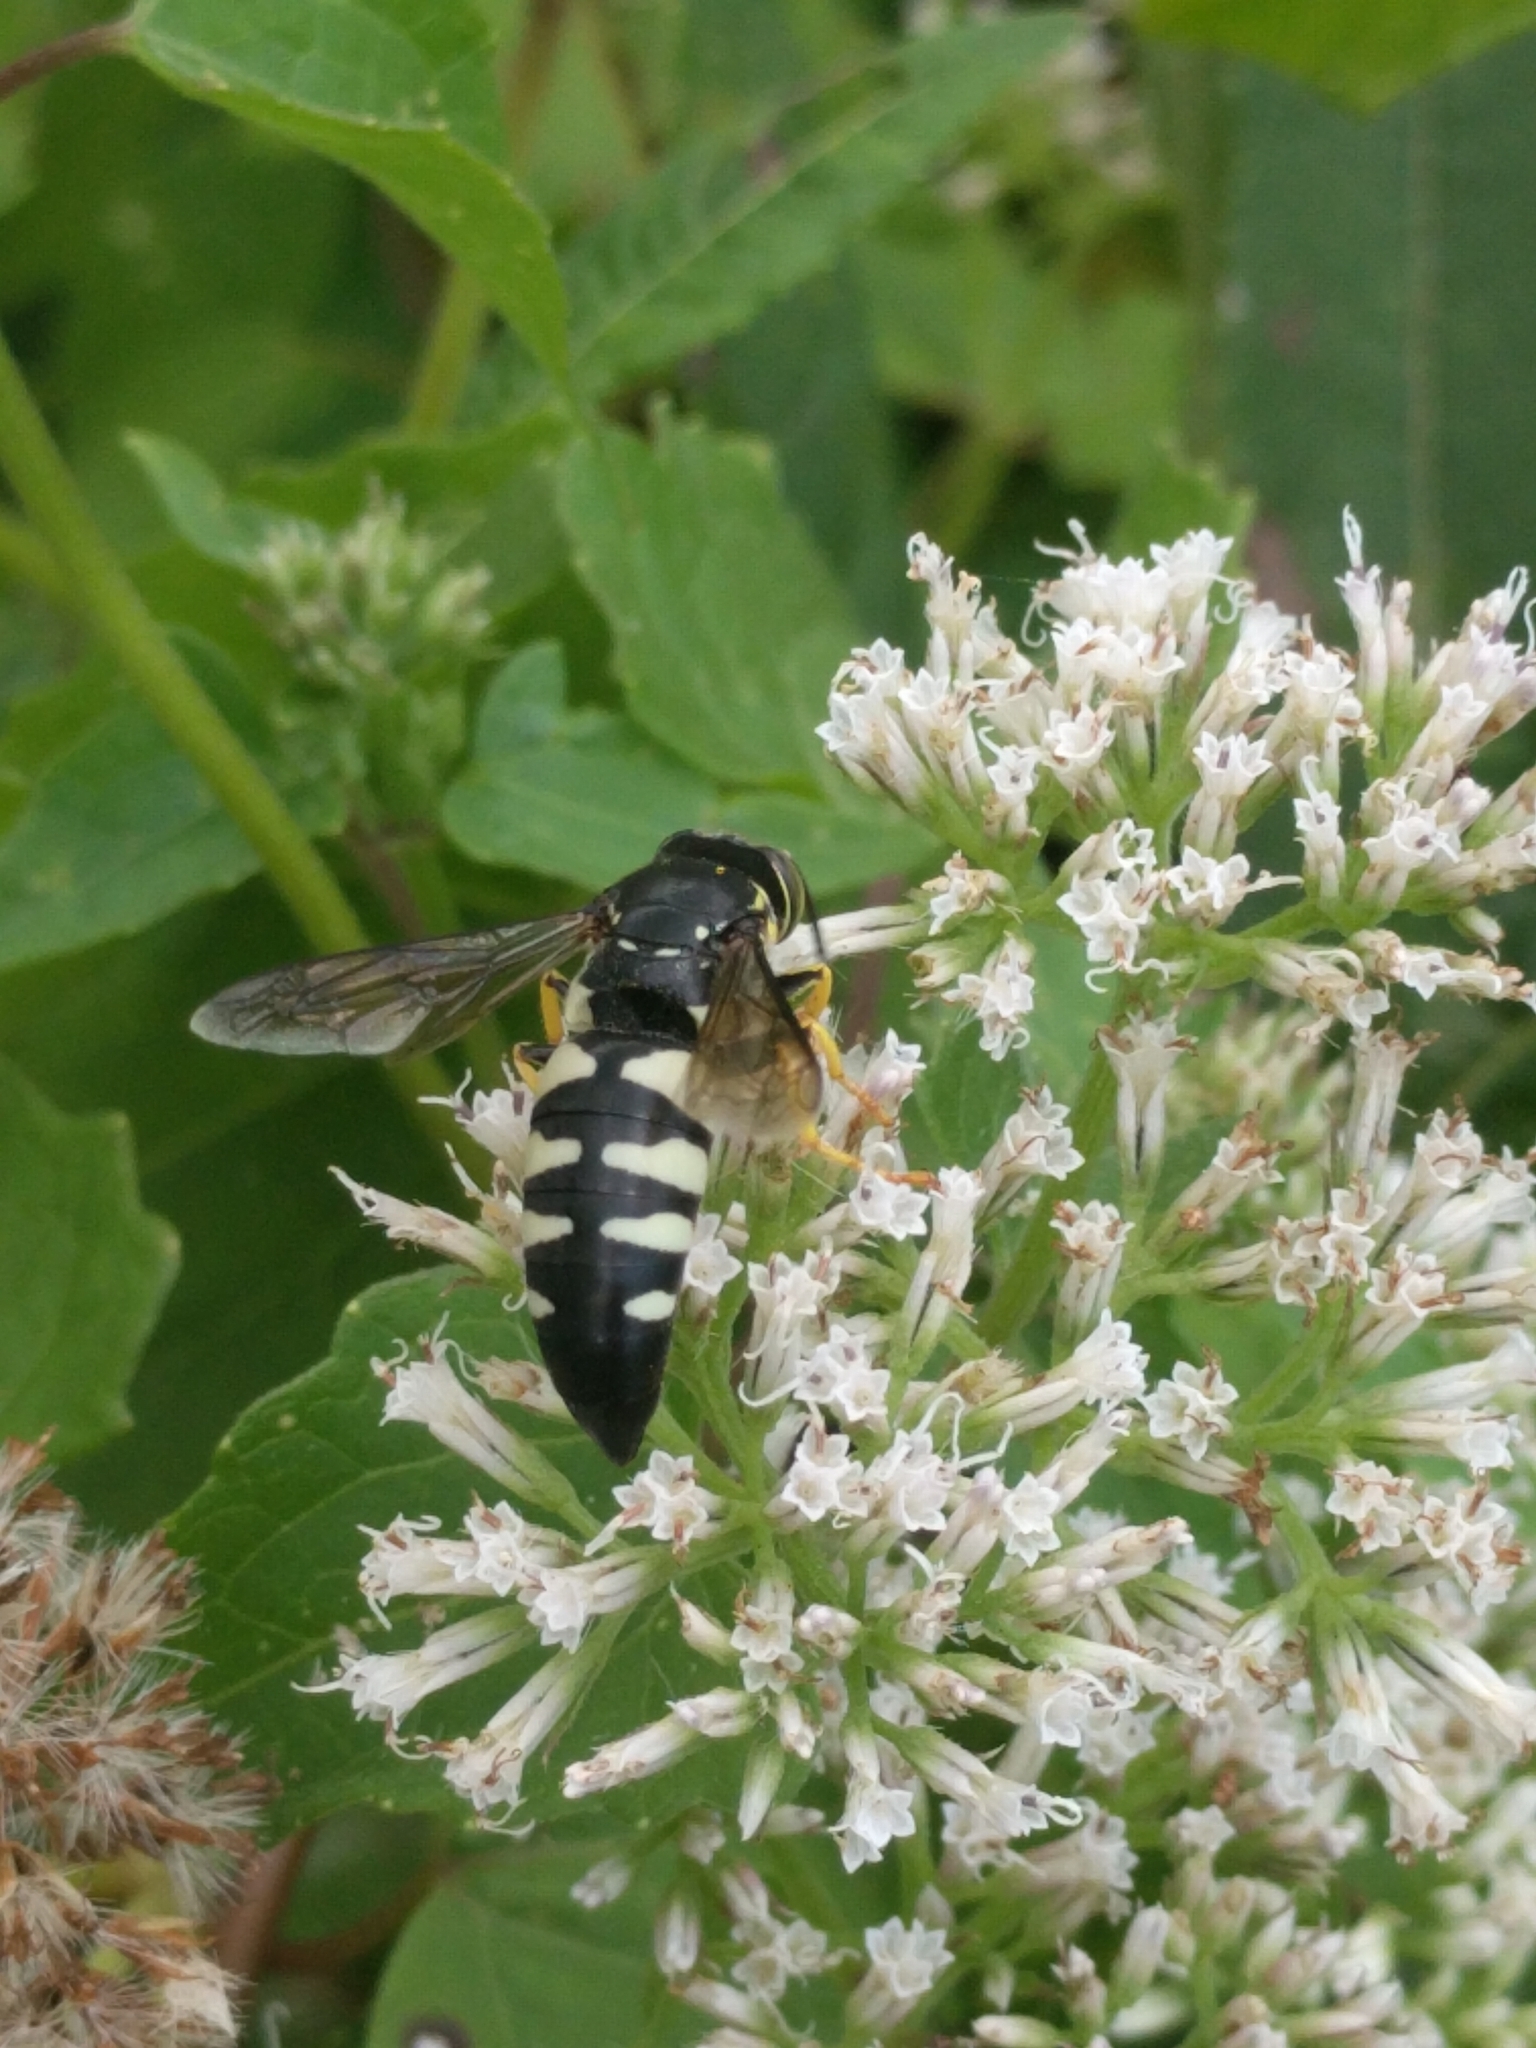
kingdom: Animalia
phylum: Arthropoda
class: Insecta
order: Hymenoptera
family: Crabronidae
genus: Bicyrtes
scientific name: Bicyrtes quadrifasciatus
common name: Four-banded stink bug hunter wasp
